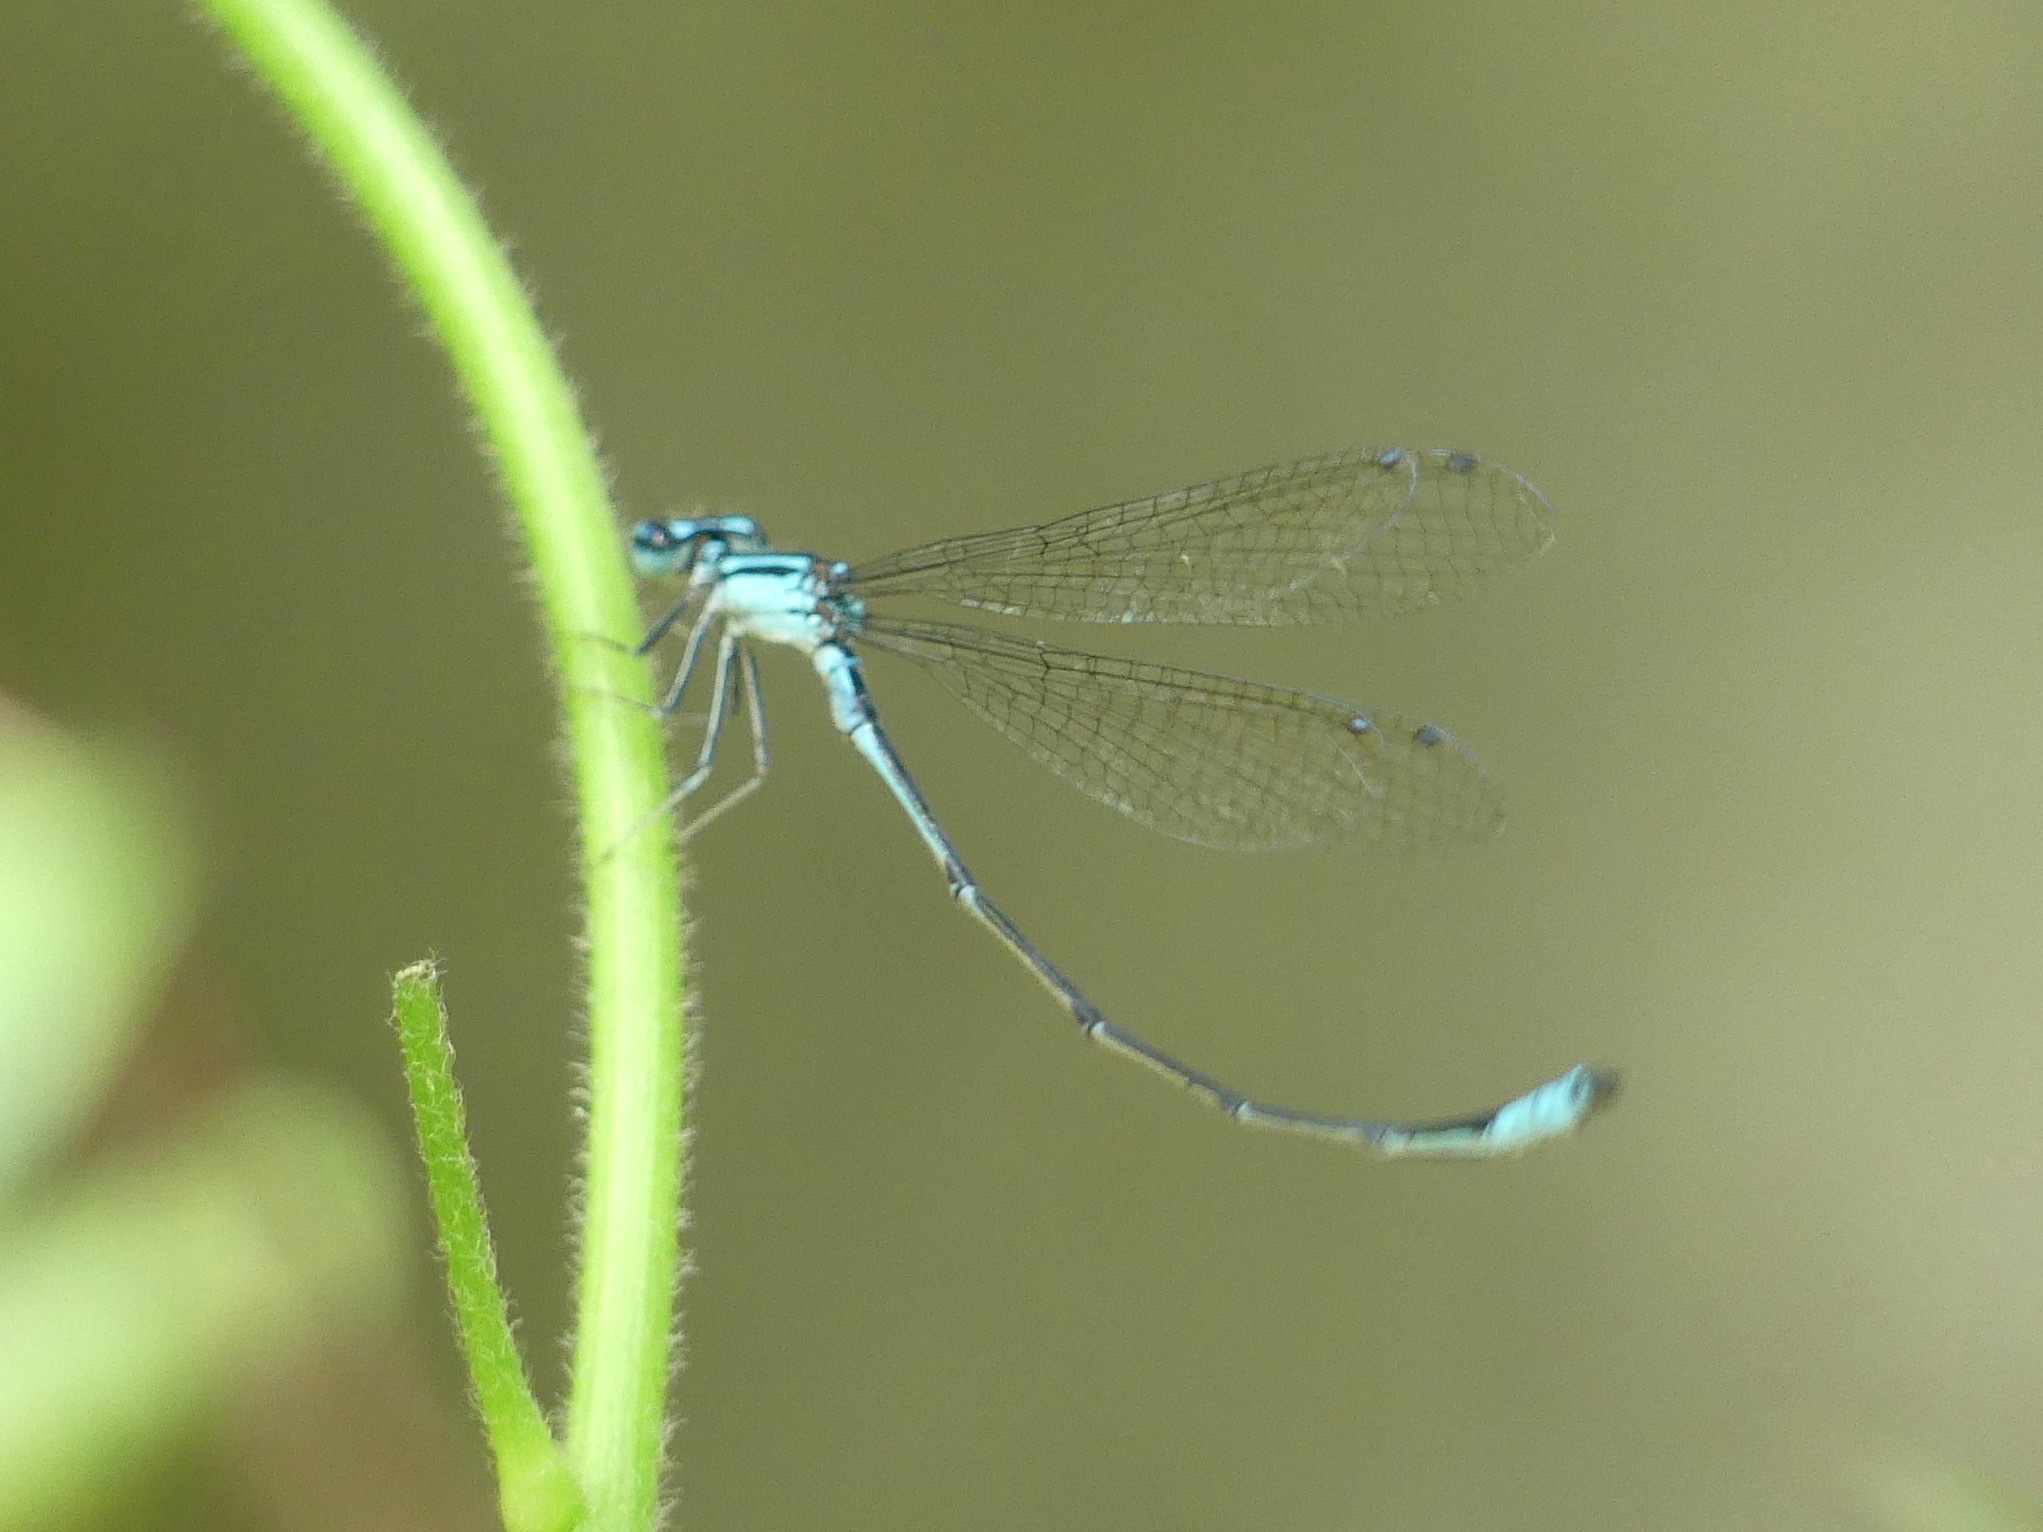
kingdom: Animalia
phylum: Arthropoda
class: Insecta
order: Odonata
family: Coenagrionidae
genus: Enallagma
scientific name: Enallagma divagans
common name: Turquoise bluet
